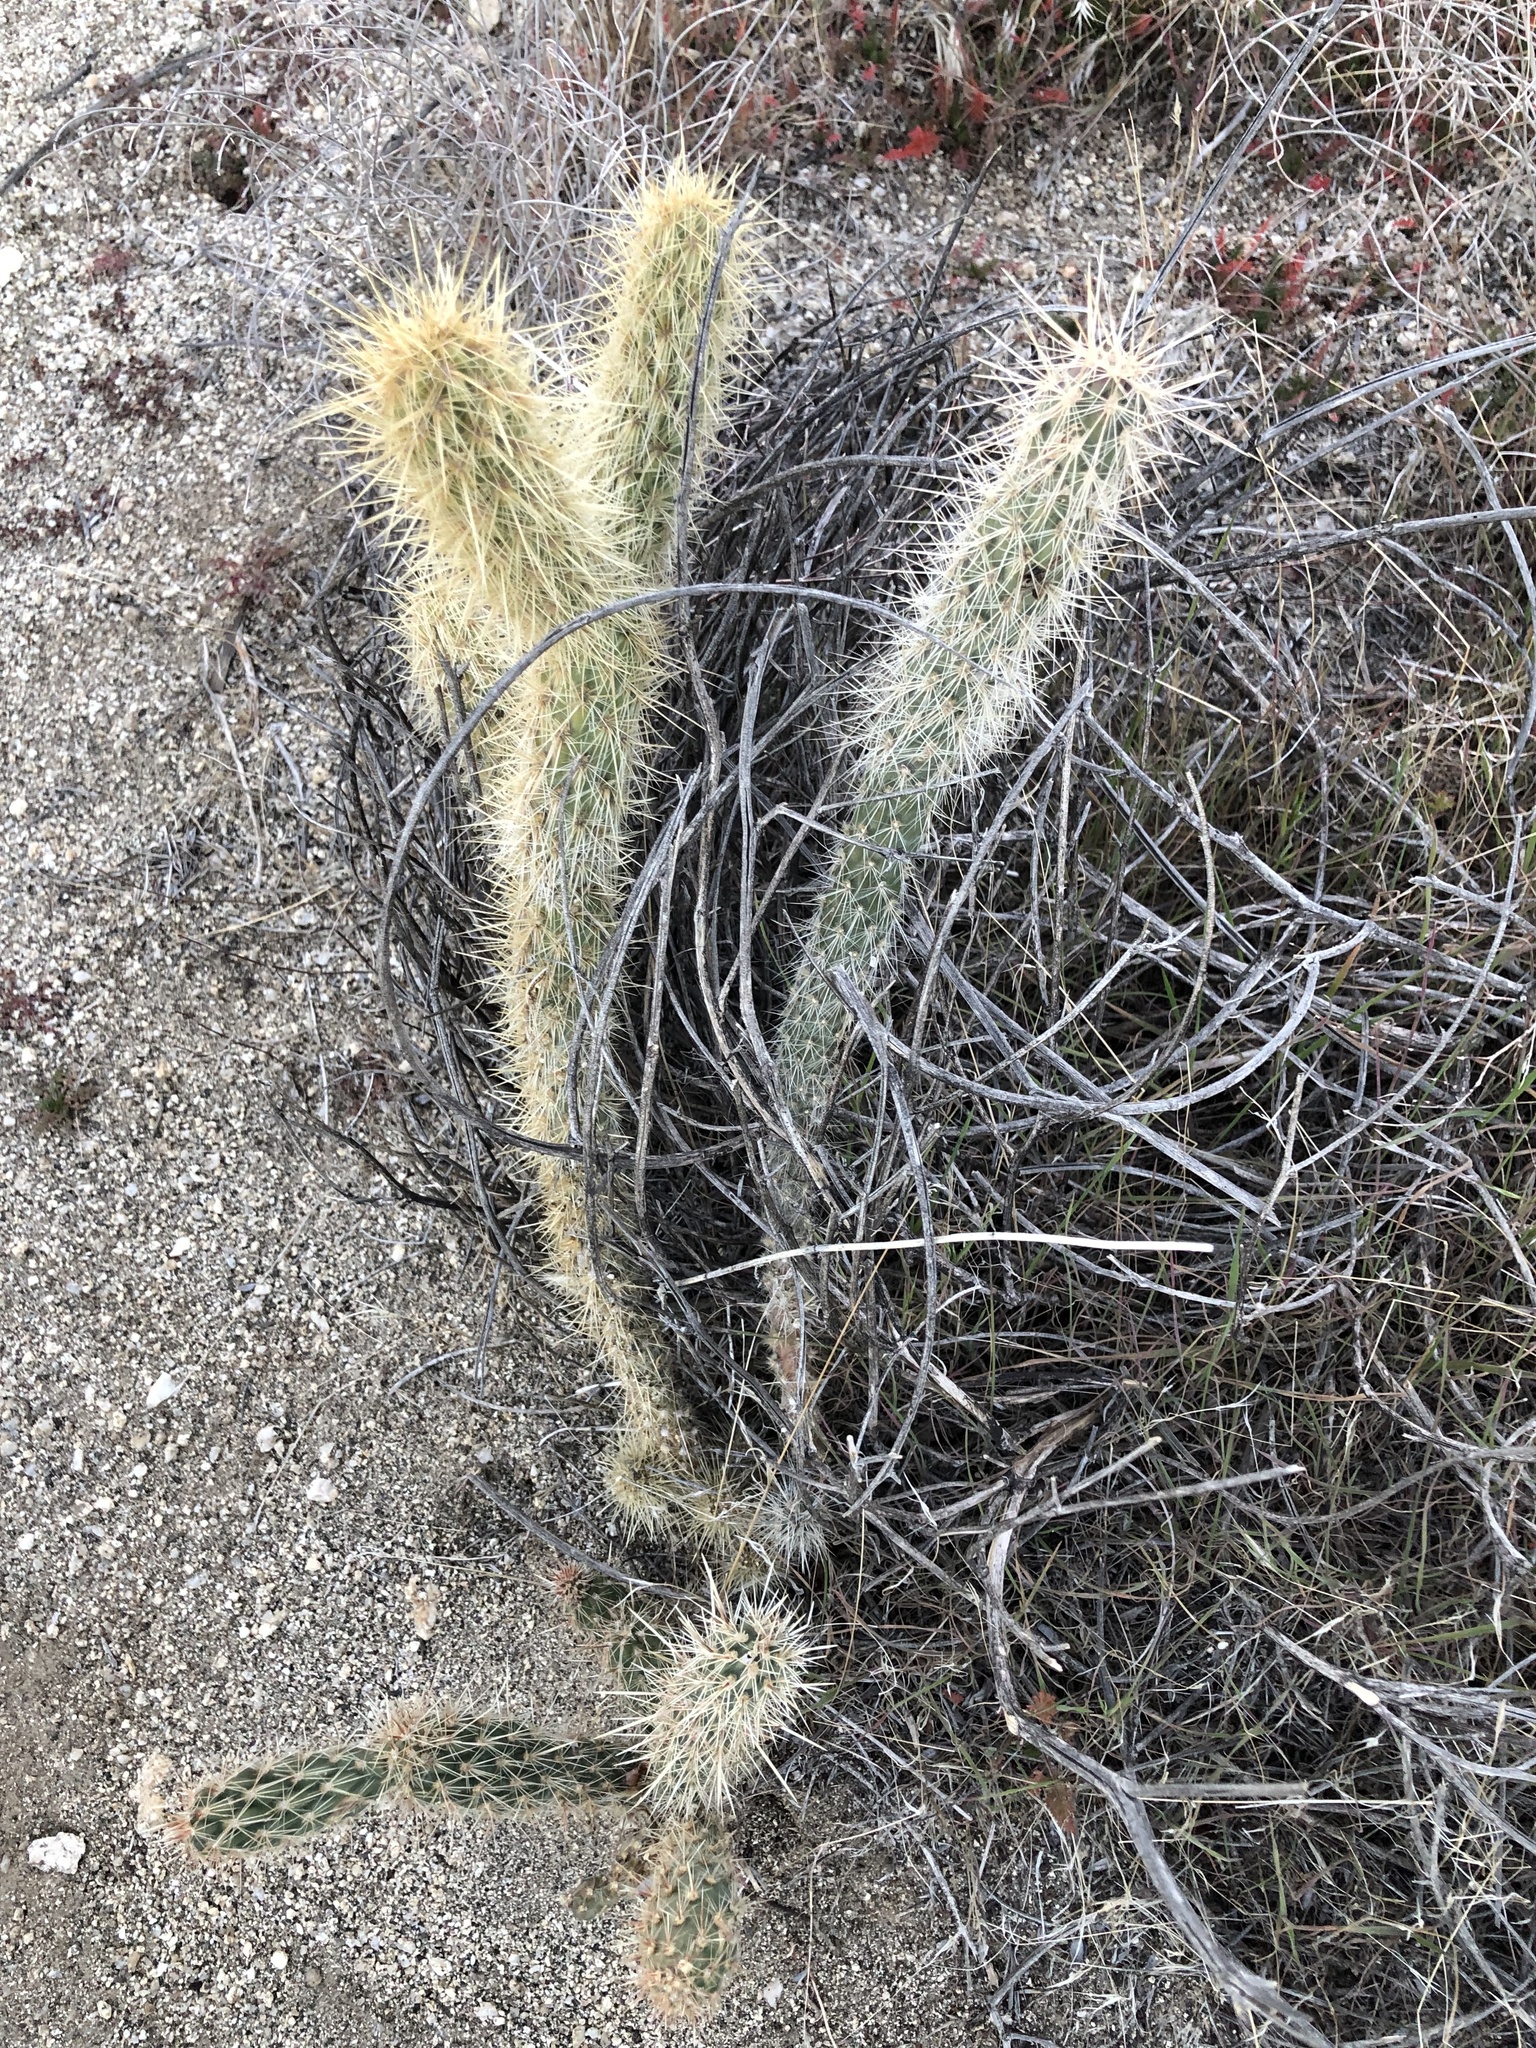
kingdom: Plantae
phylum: Tracheophyta
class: Magnoliopsida
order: Caryophyllales
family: Cactaceae
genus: Cylindropuntia
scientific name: Cylindropuntia ganderi
